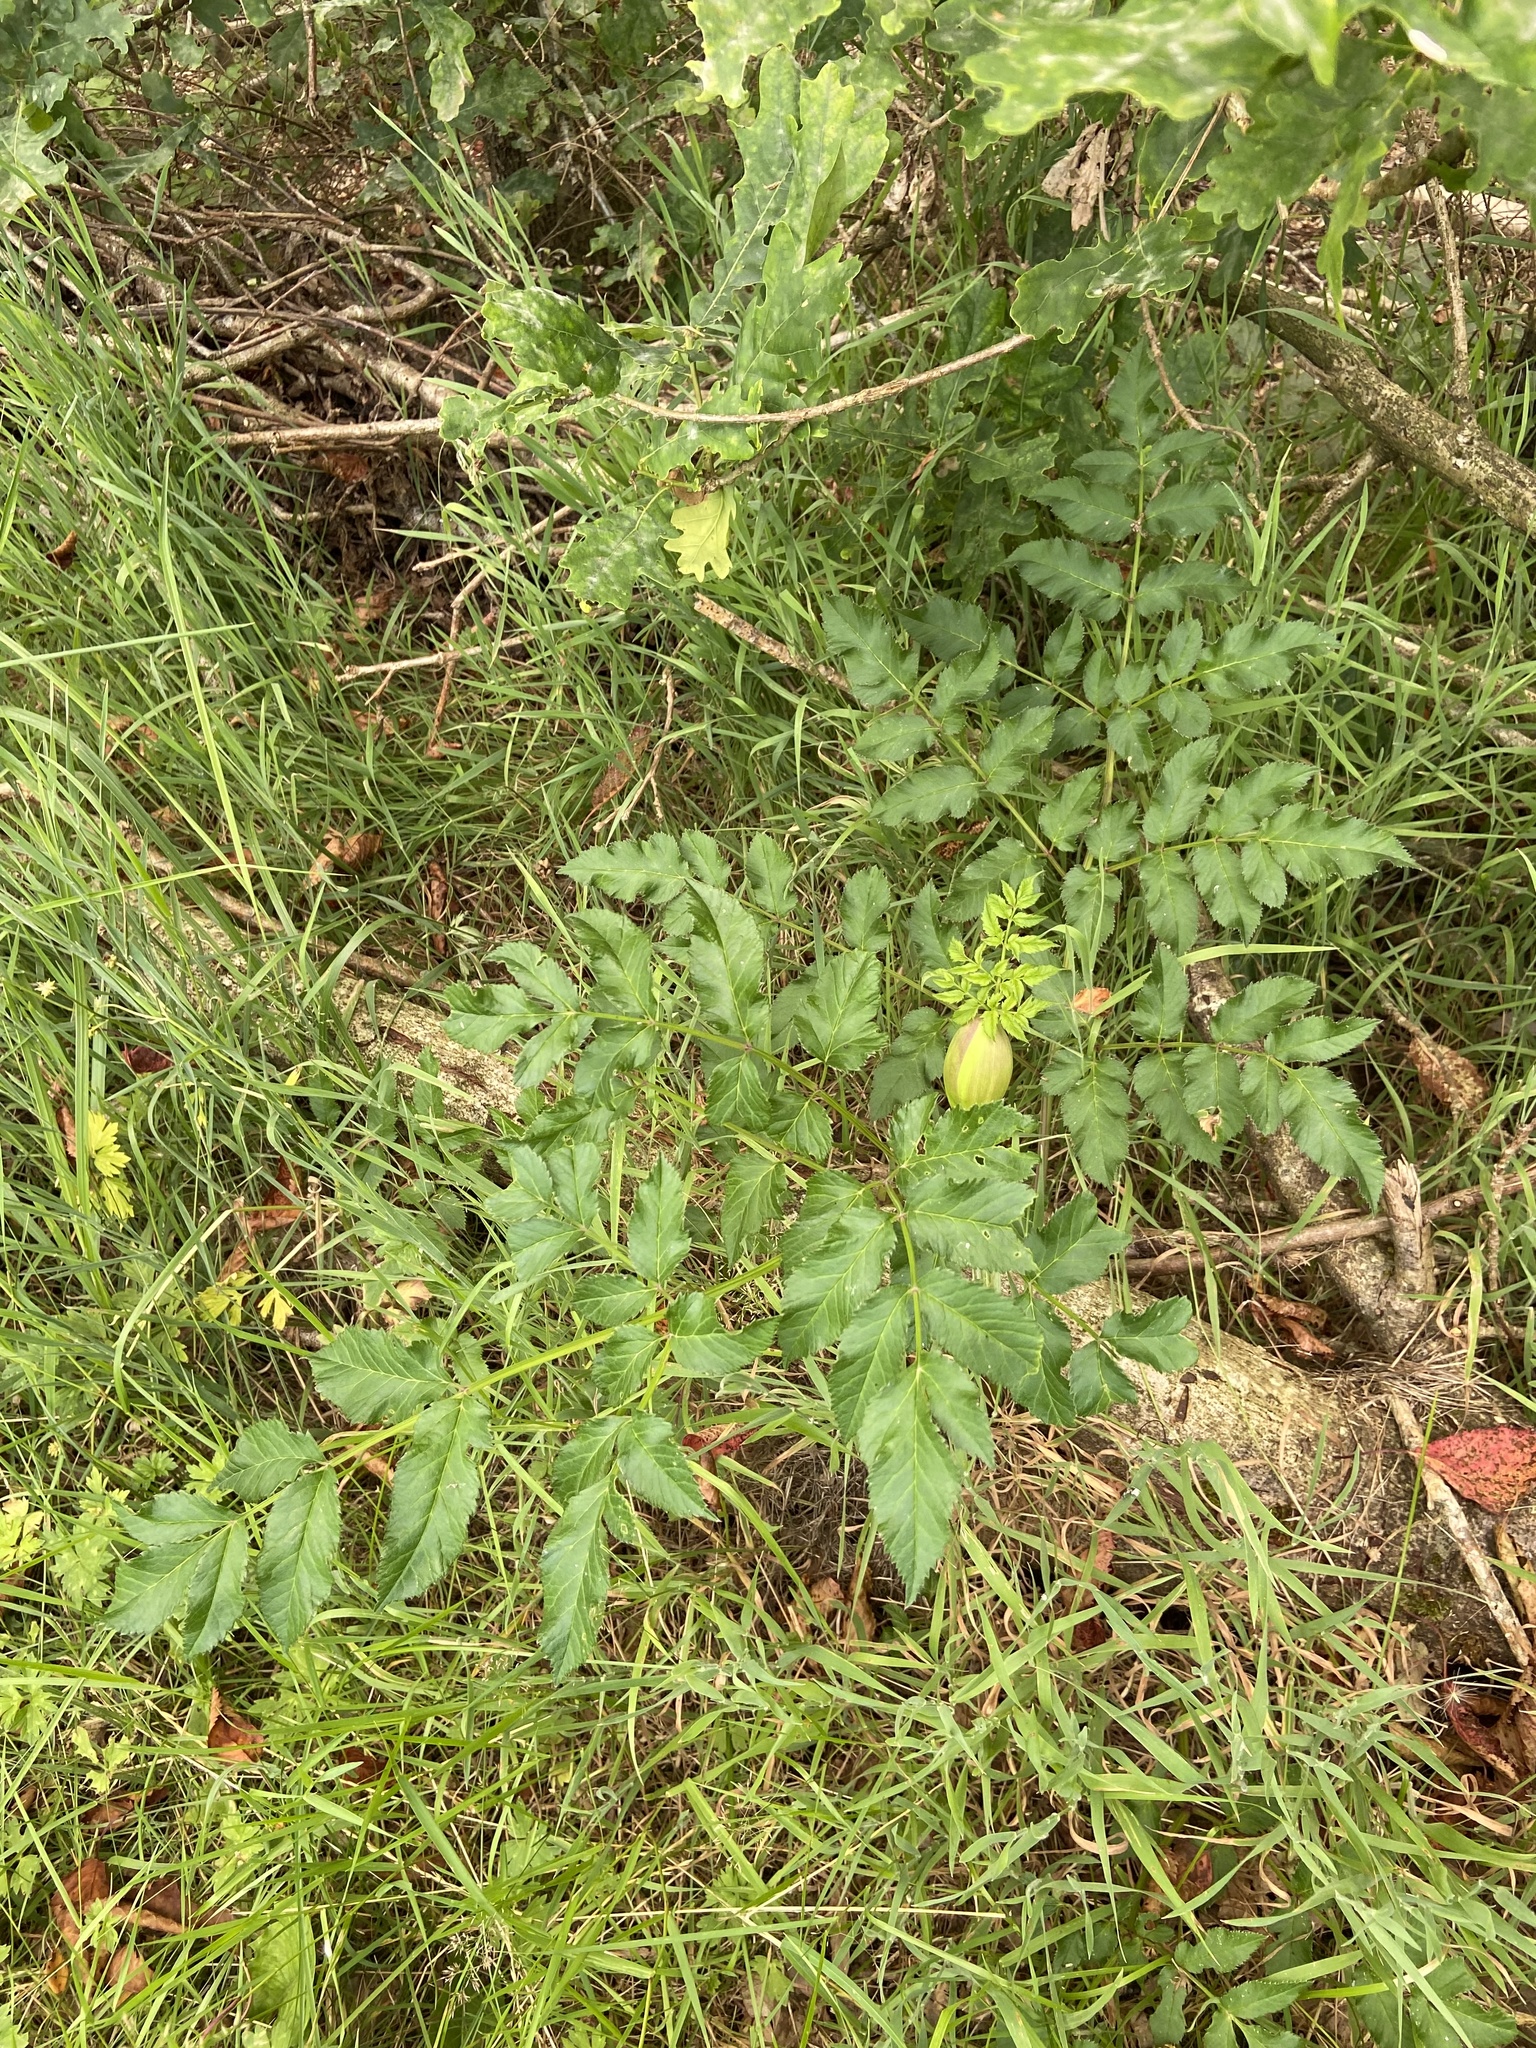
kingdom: Plantae
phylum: Tracheophyta
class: Magnoliopsida
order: Apiales
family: Apiaceae
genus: Angelica
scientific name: Angelica sylvestris
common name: Wild angelica
